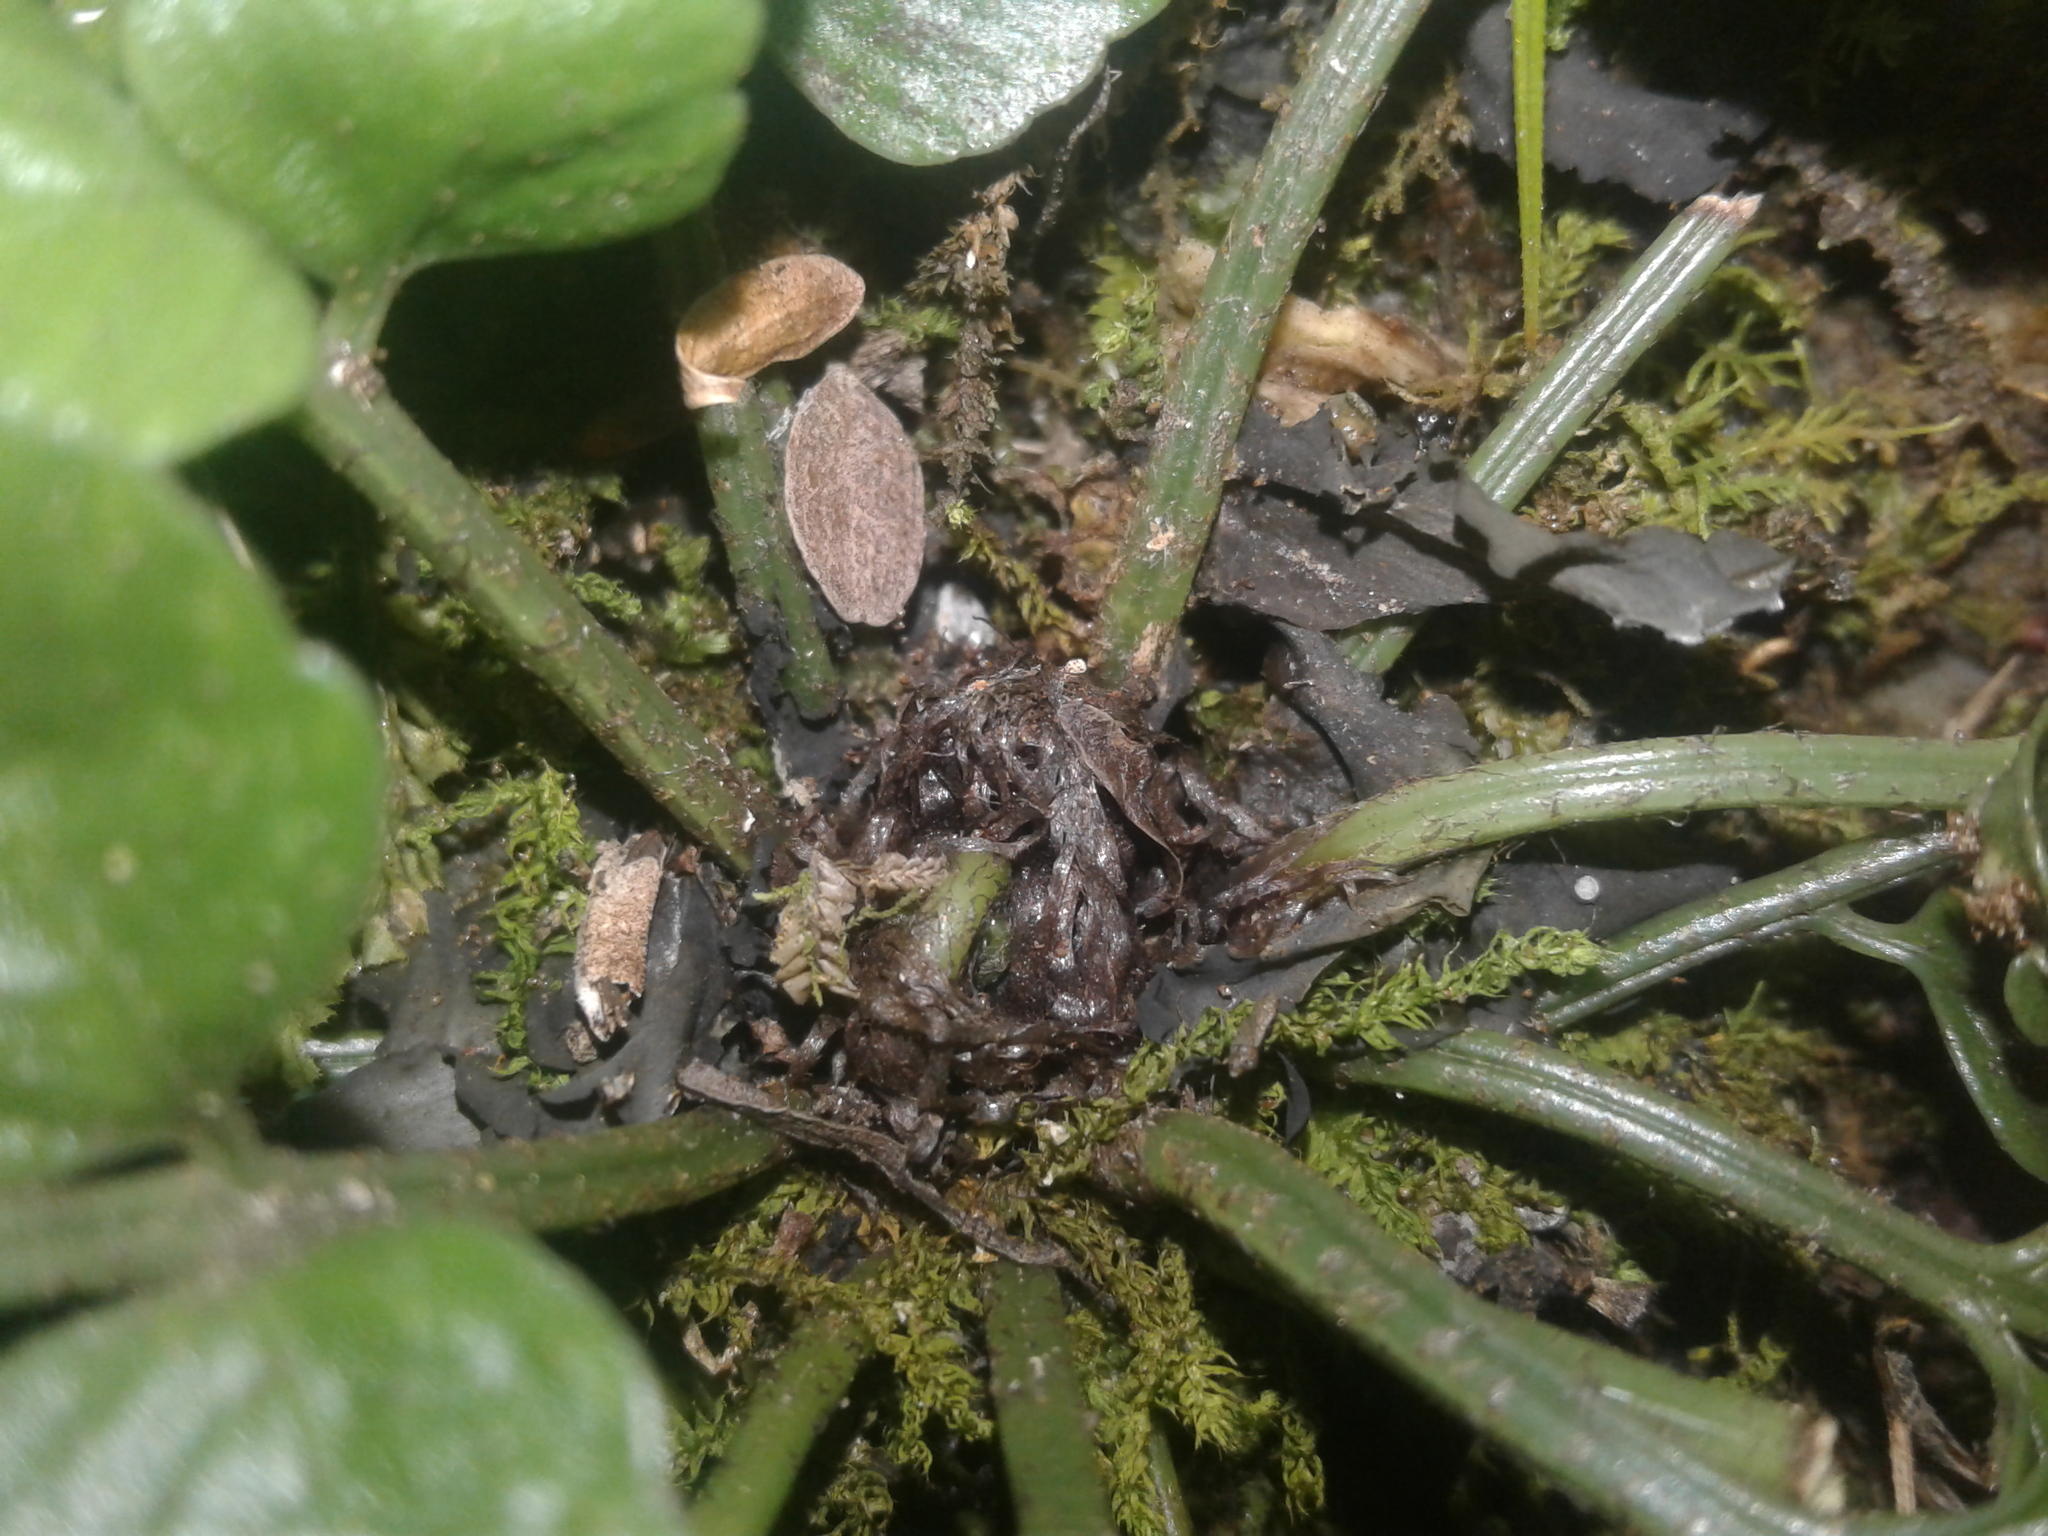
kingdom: Plantae
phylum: Tracheophyta
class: Polypodiopsida
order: Polypodiales
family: Aspleniaceae
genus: Asplenium
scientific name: Asplenium lyallii
